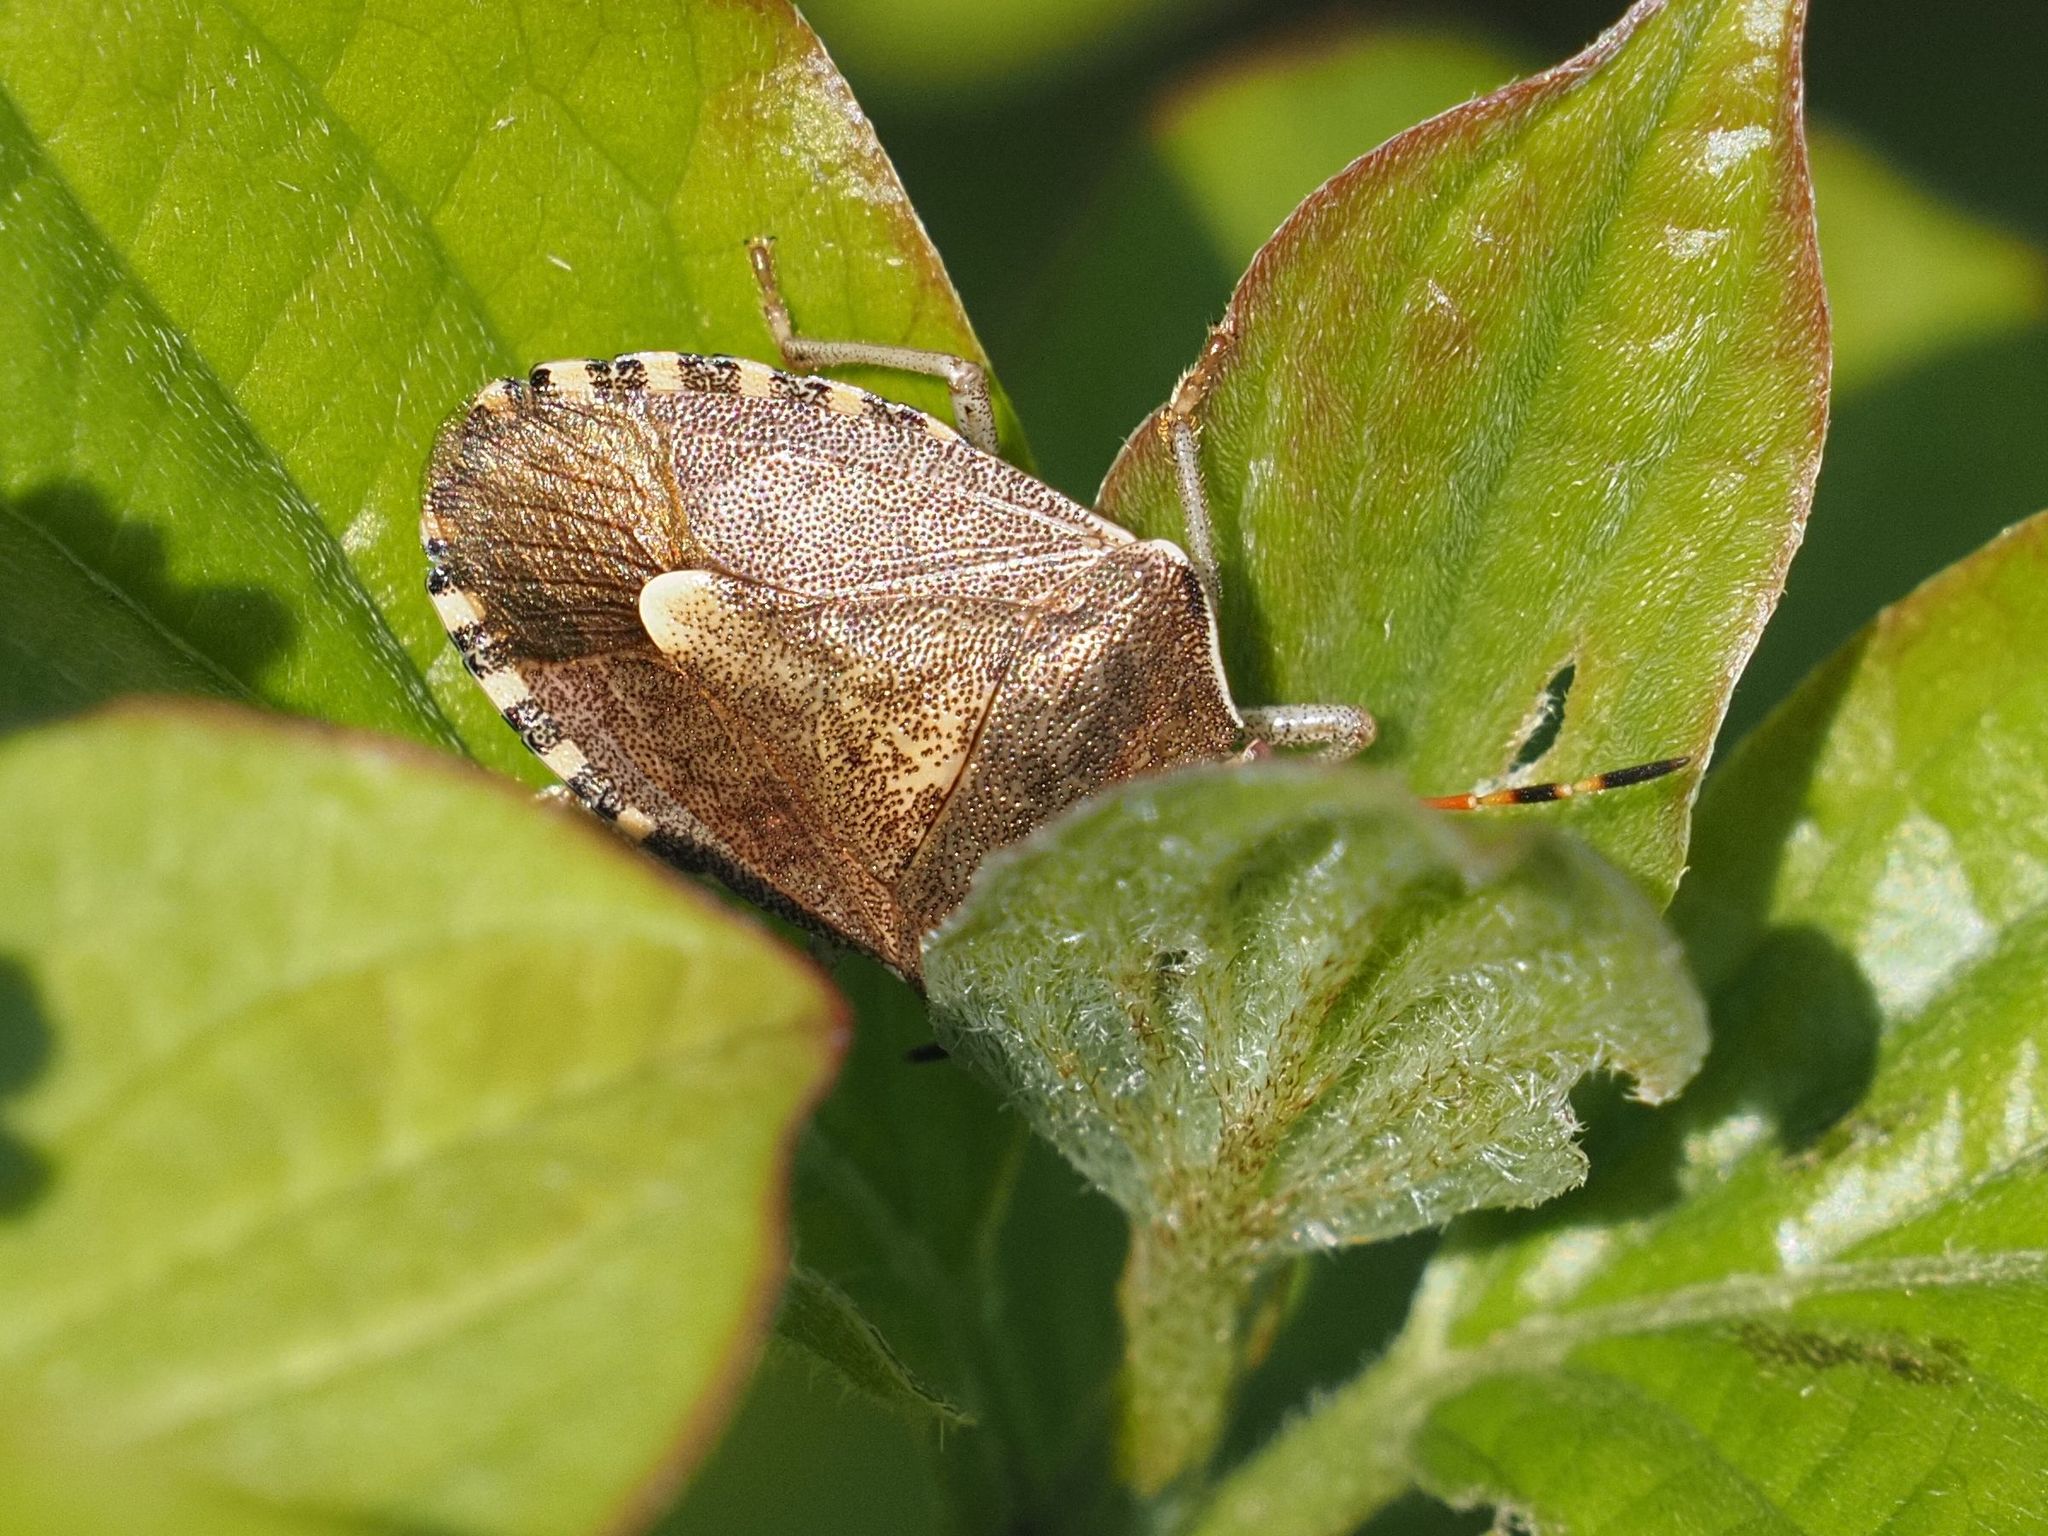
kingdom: Animalia
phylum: Arthropoda
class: Insecta
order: Hemiptera
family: Pentatomidae
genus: Holcostethus
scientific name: Holcostethus strictus
